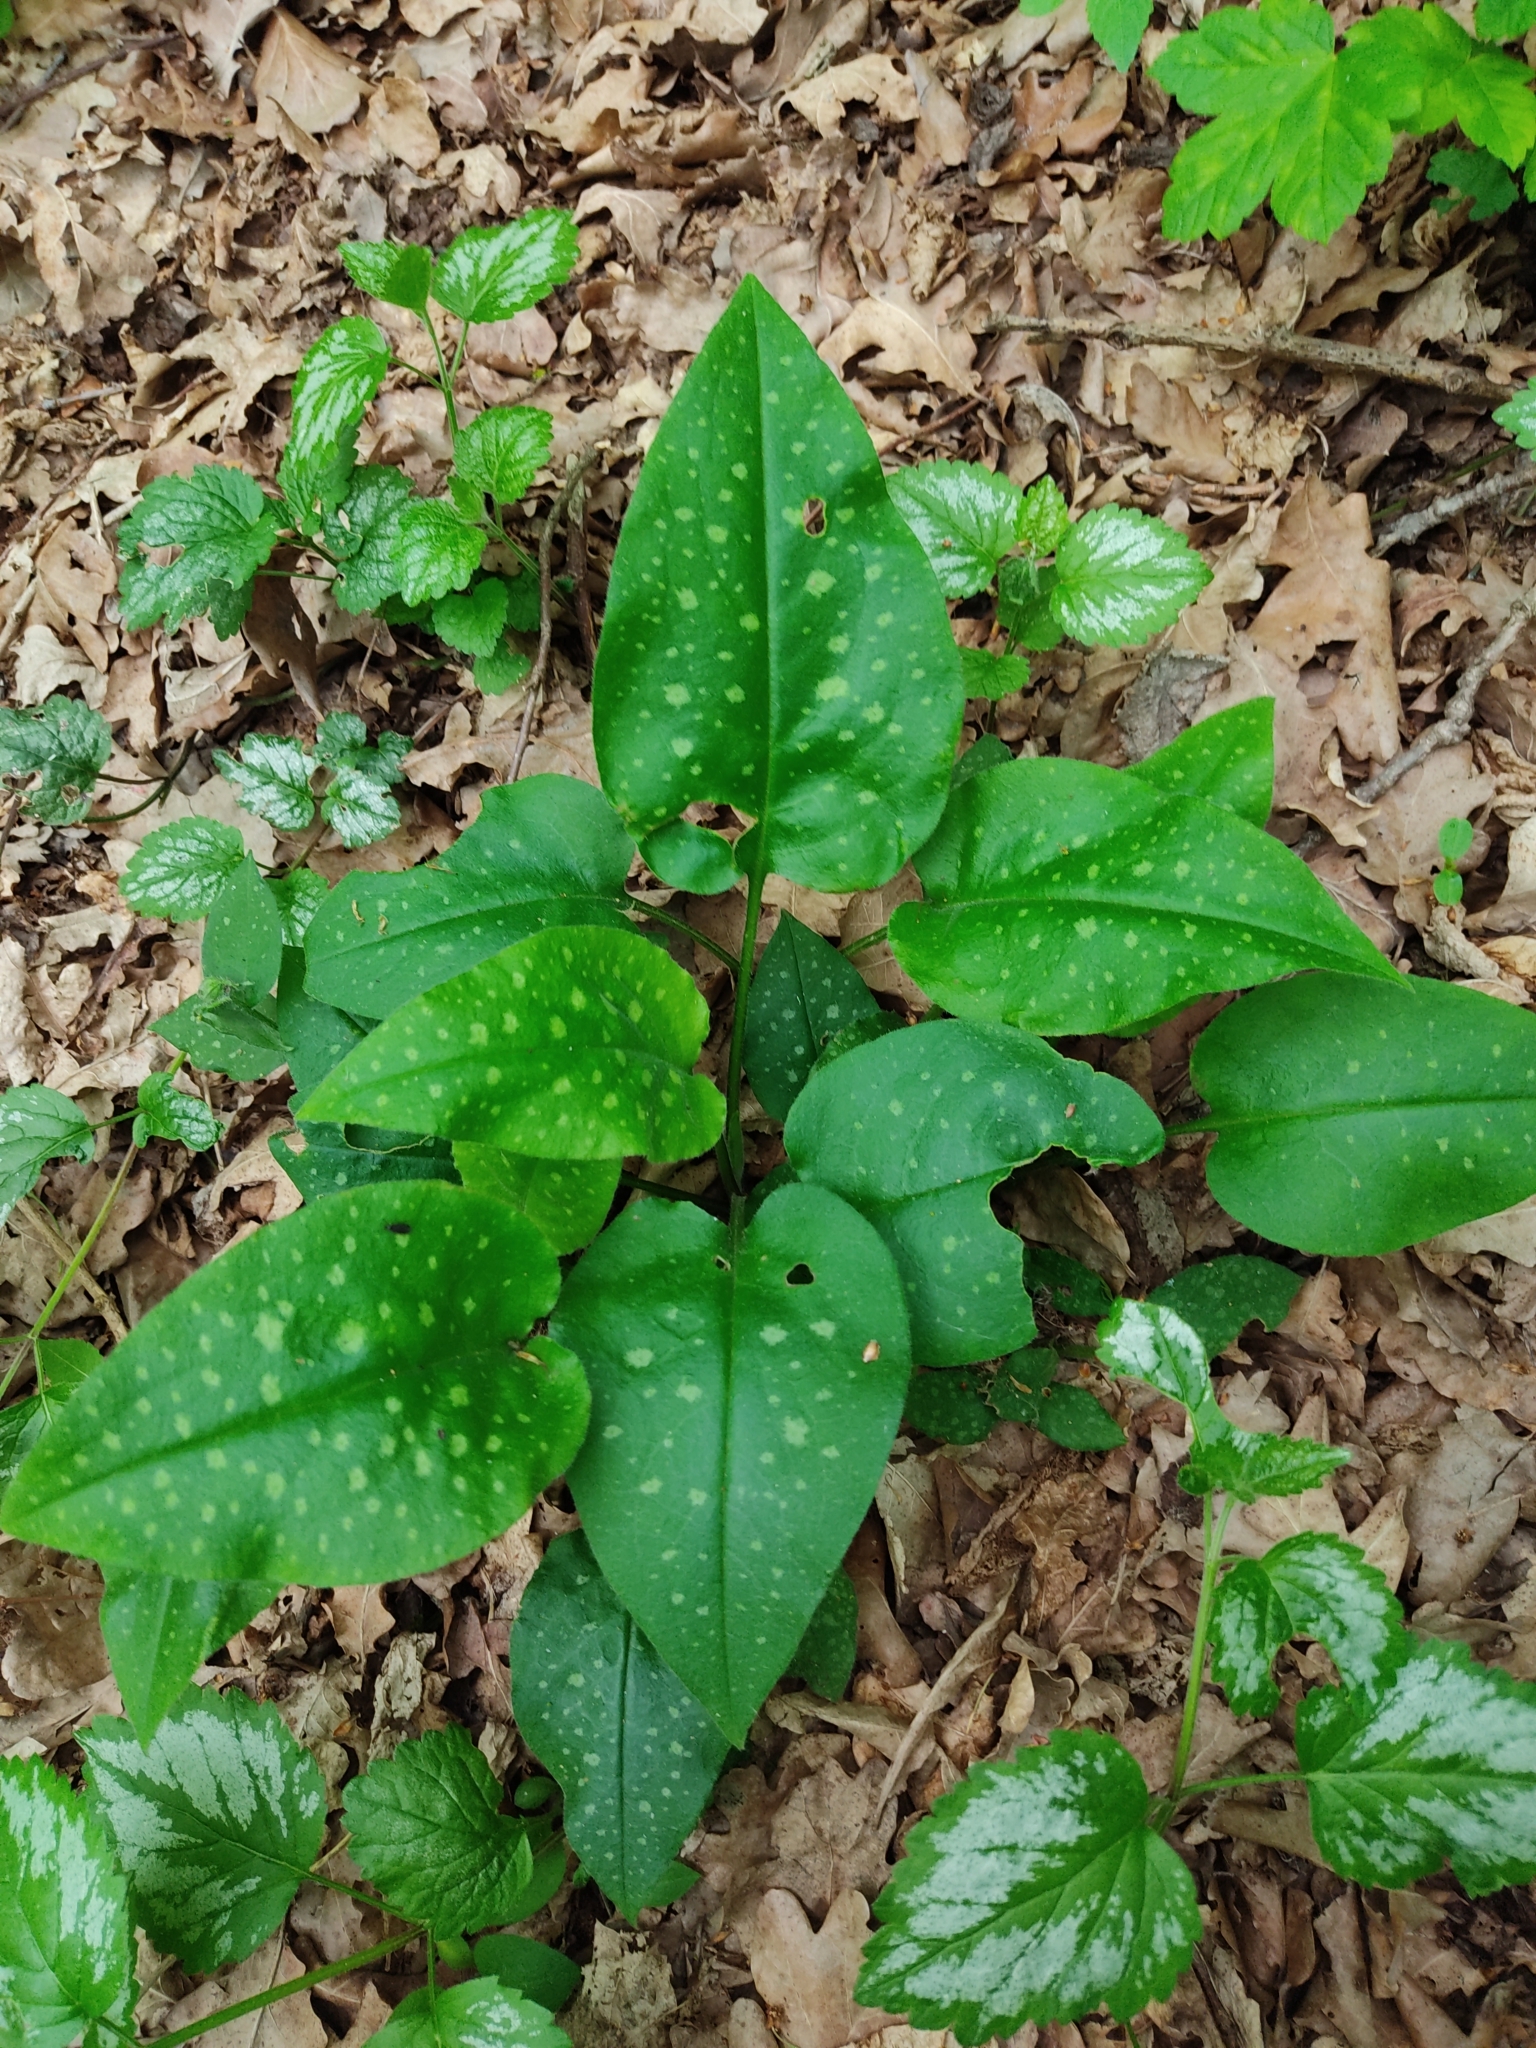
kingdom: Plantae
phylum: Tracheophyta
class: Magnoliopsida
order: Boraginales
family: Boraginaceae
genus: Pulmonaria
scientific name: Pulmonaria officinalis
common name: Lungwort
